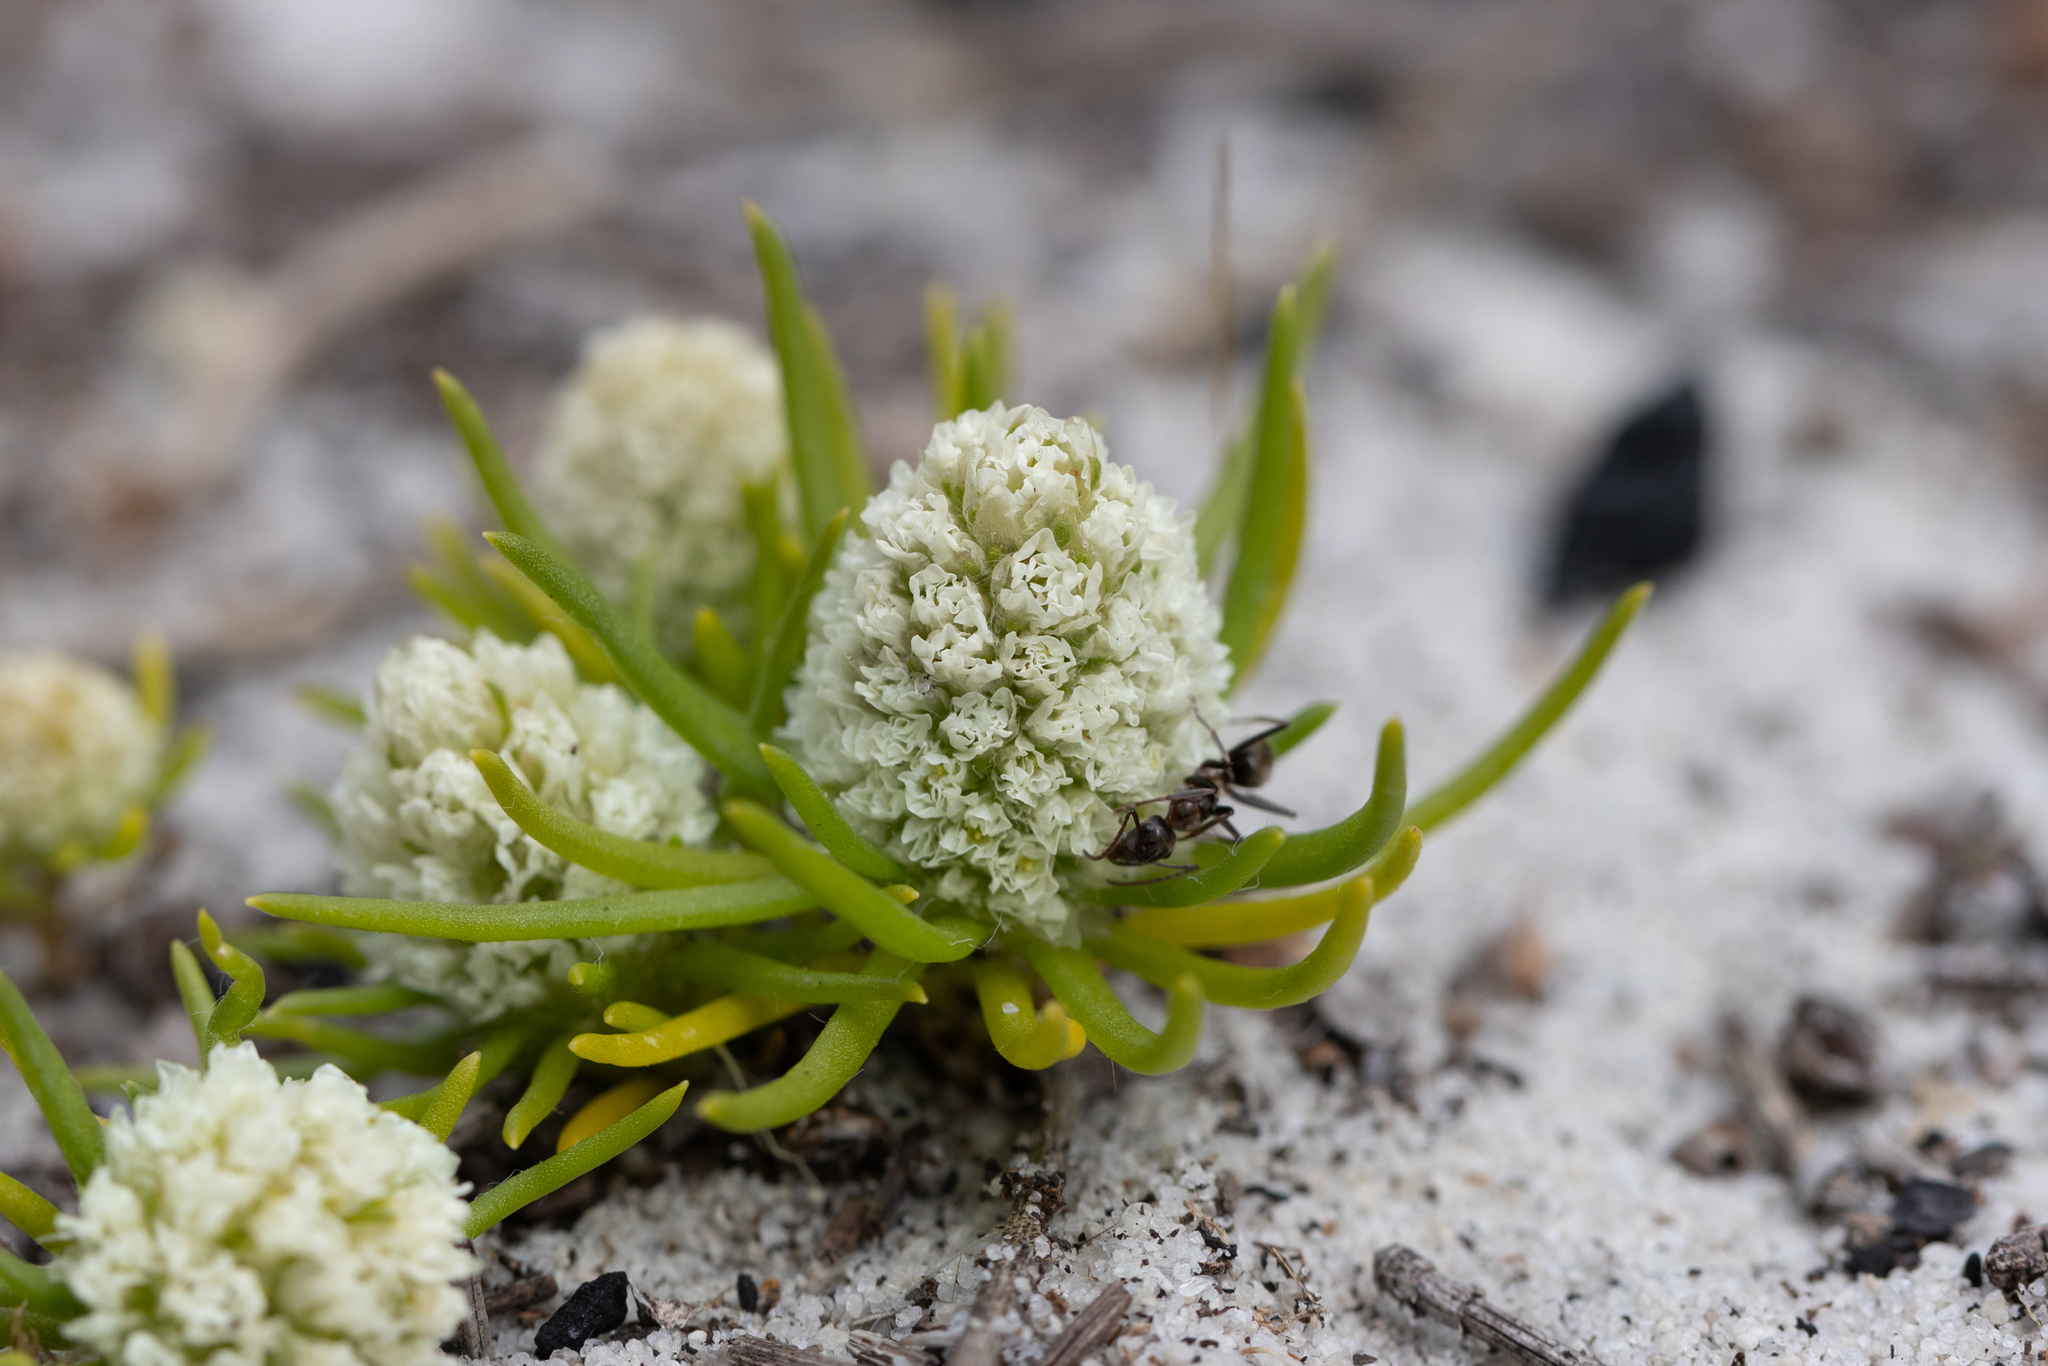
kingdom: Plantae
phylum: Tracheophyta
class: Magnoliopsida
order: Asterales
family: Asteraceae
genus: Siloxerus
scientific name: Siloxerus humifusus
